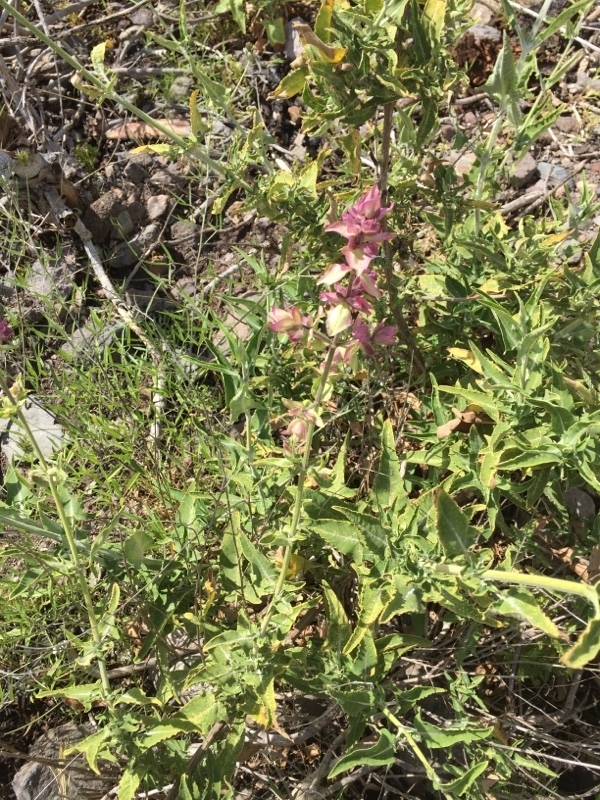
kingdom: Plantae
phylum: Tracheophyta
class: Magnoliopsida
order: Lamiales
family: Lamiaceae
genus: Salvia
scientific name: Salvia canariensis
